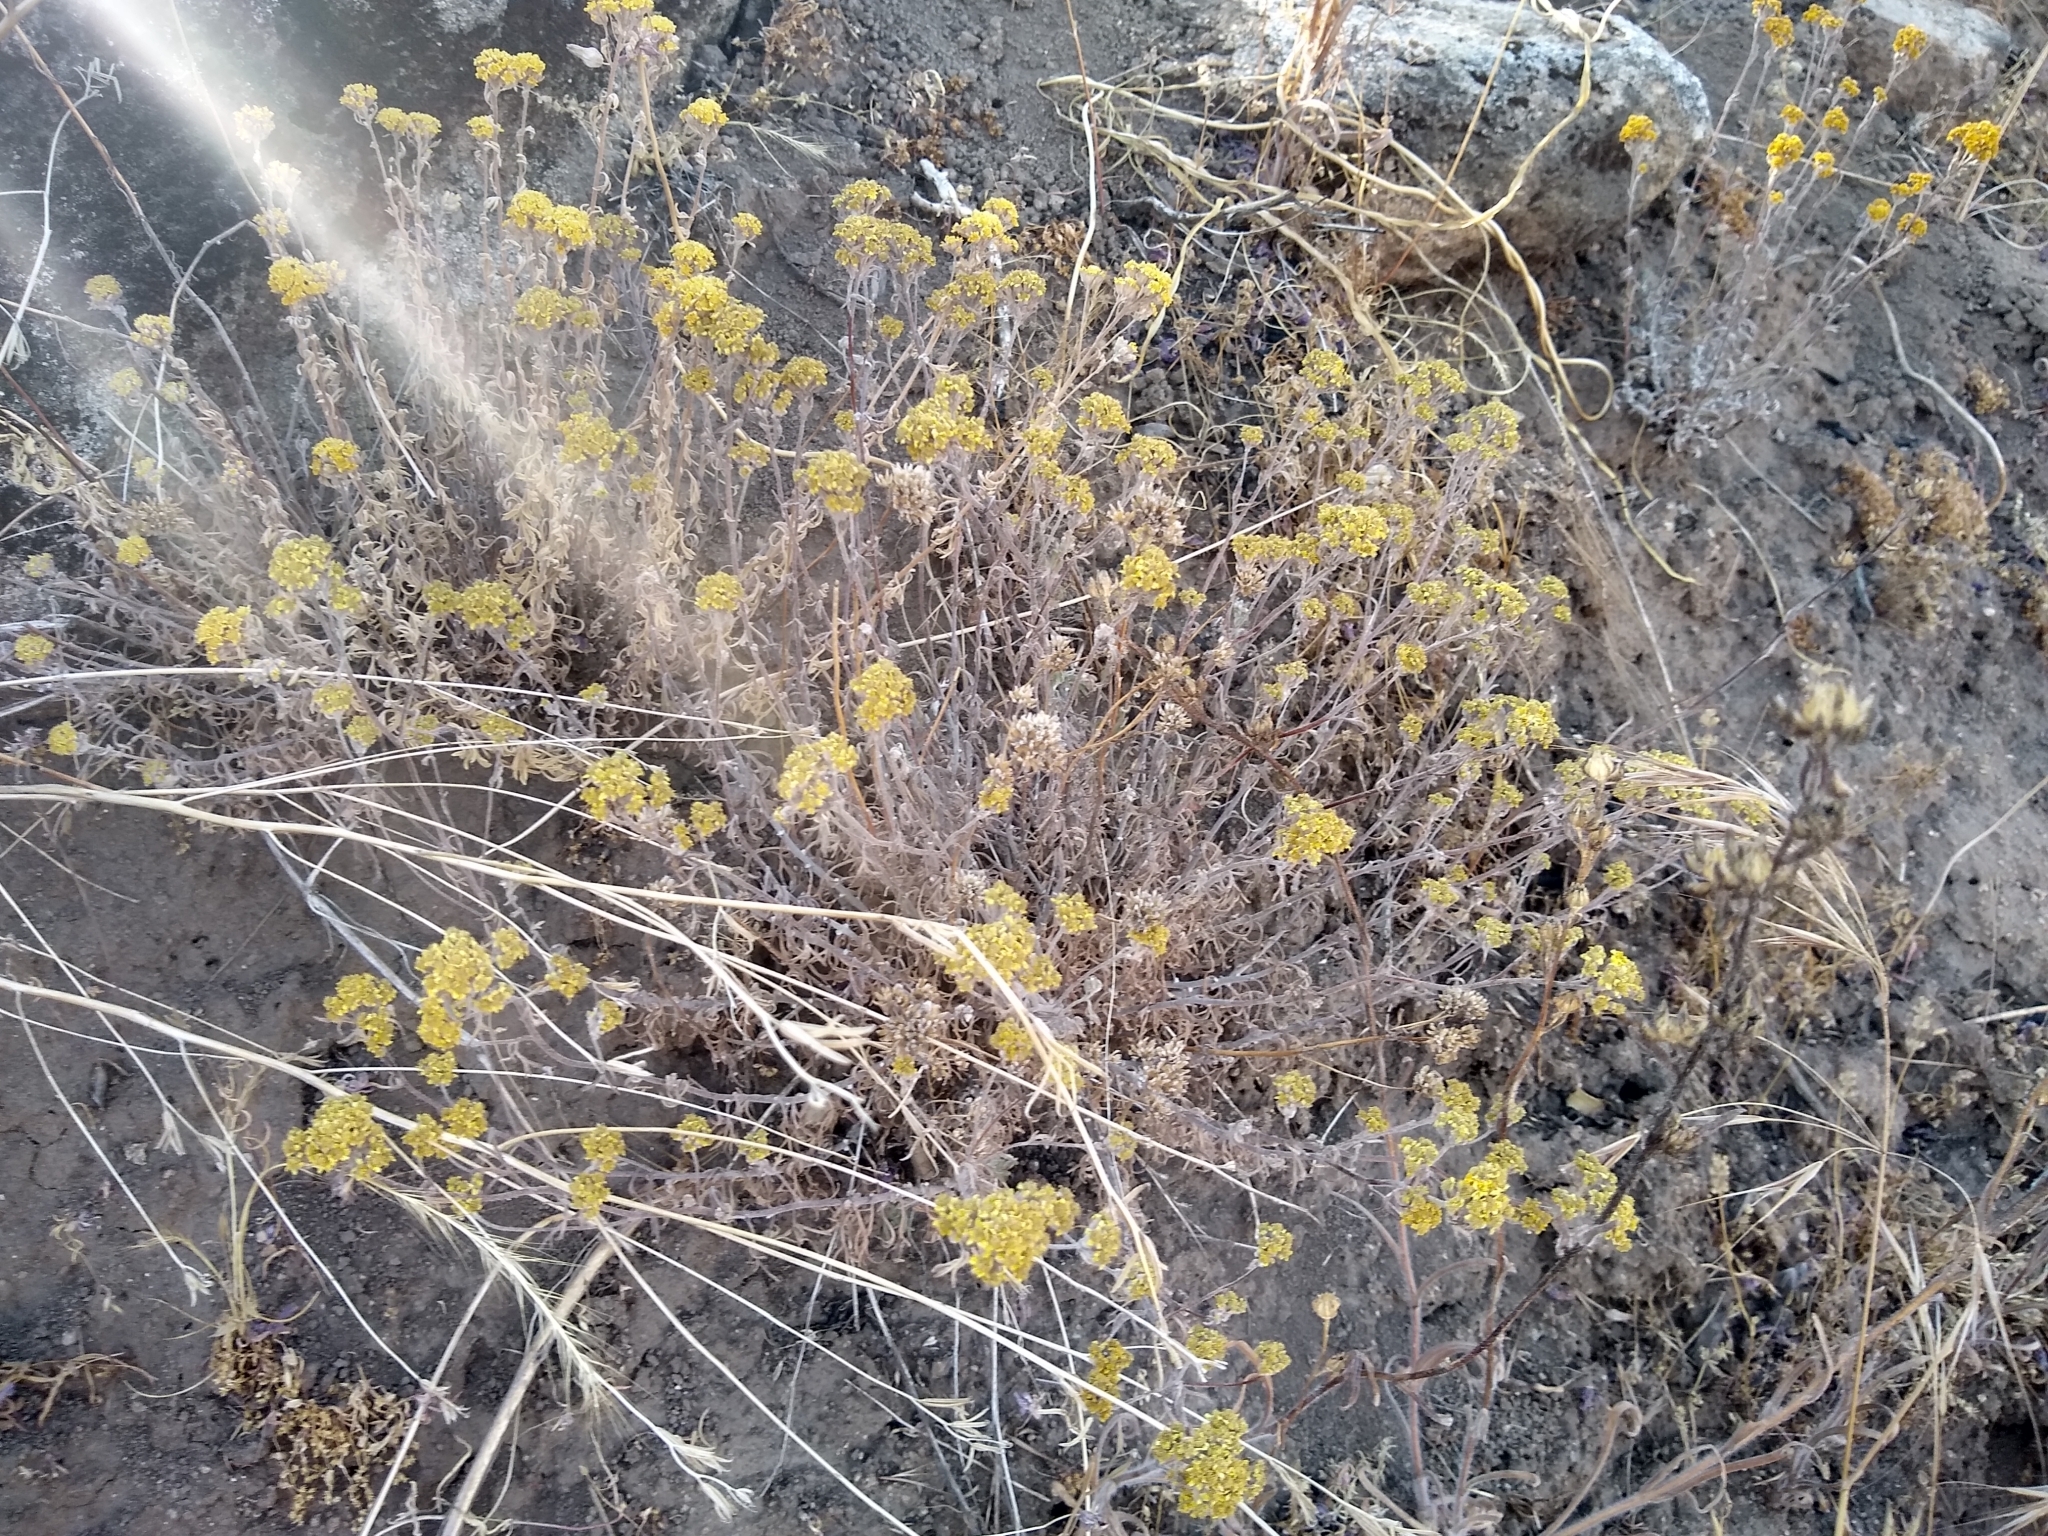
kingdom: Plantae
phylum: Tracheophyta
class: Magnoliopsida
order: Asterales
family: Asteraceae
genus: Eriophyllum
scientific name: Eriophyllum confertiflorum
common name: Golden-yarrow
